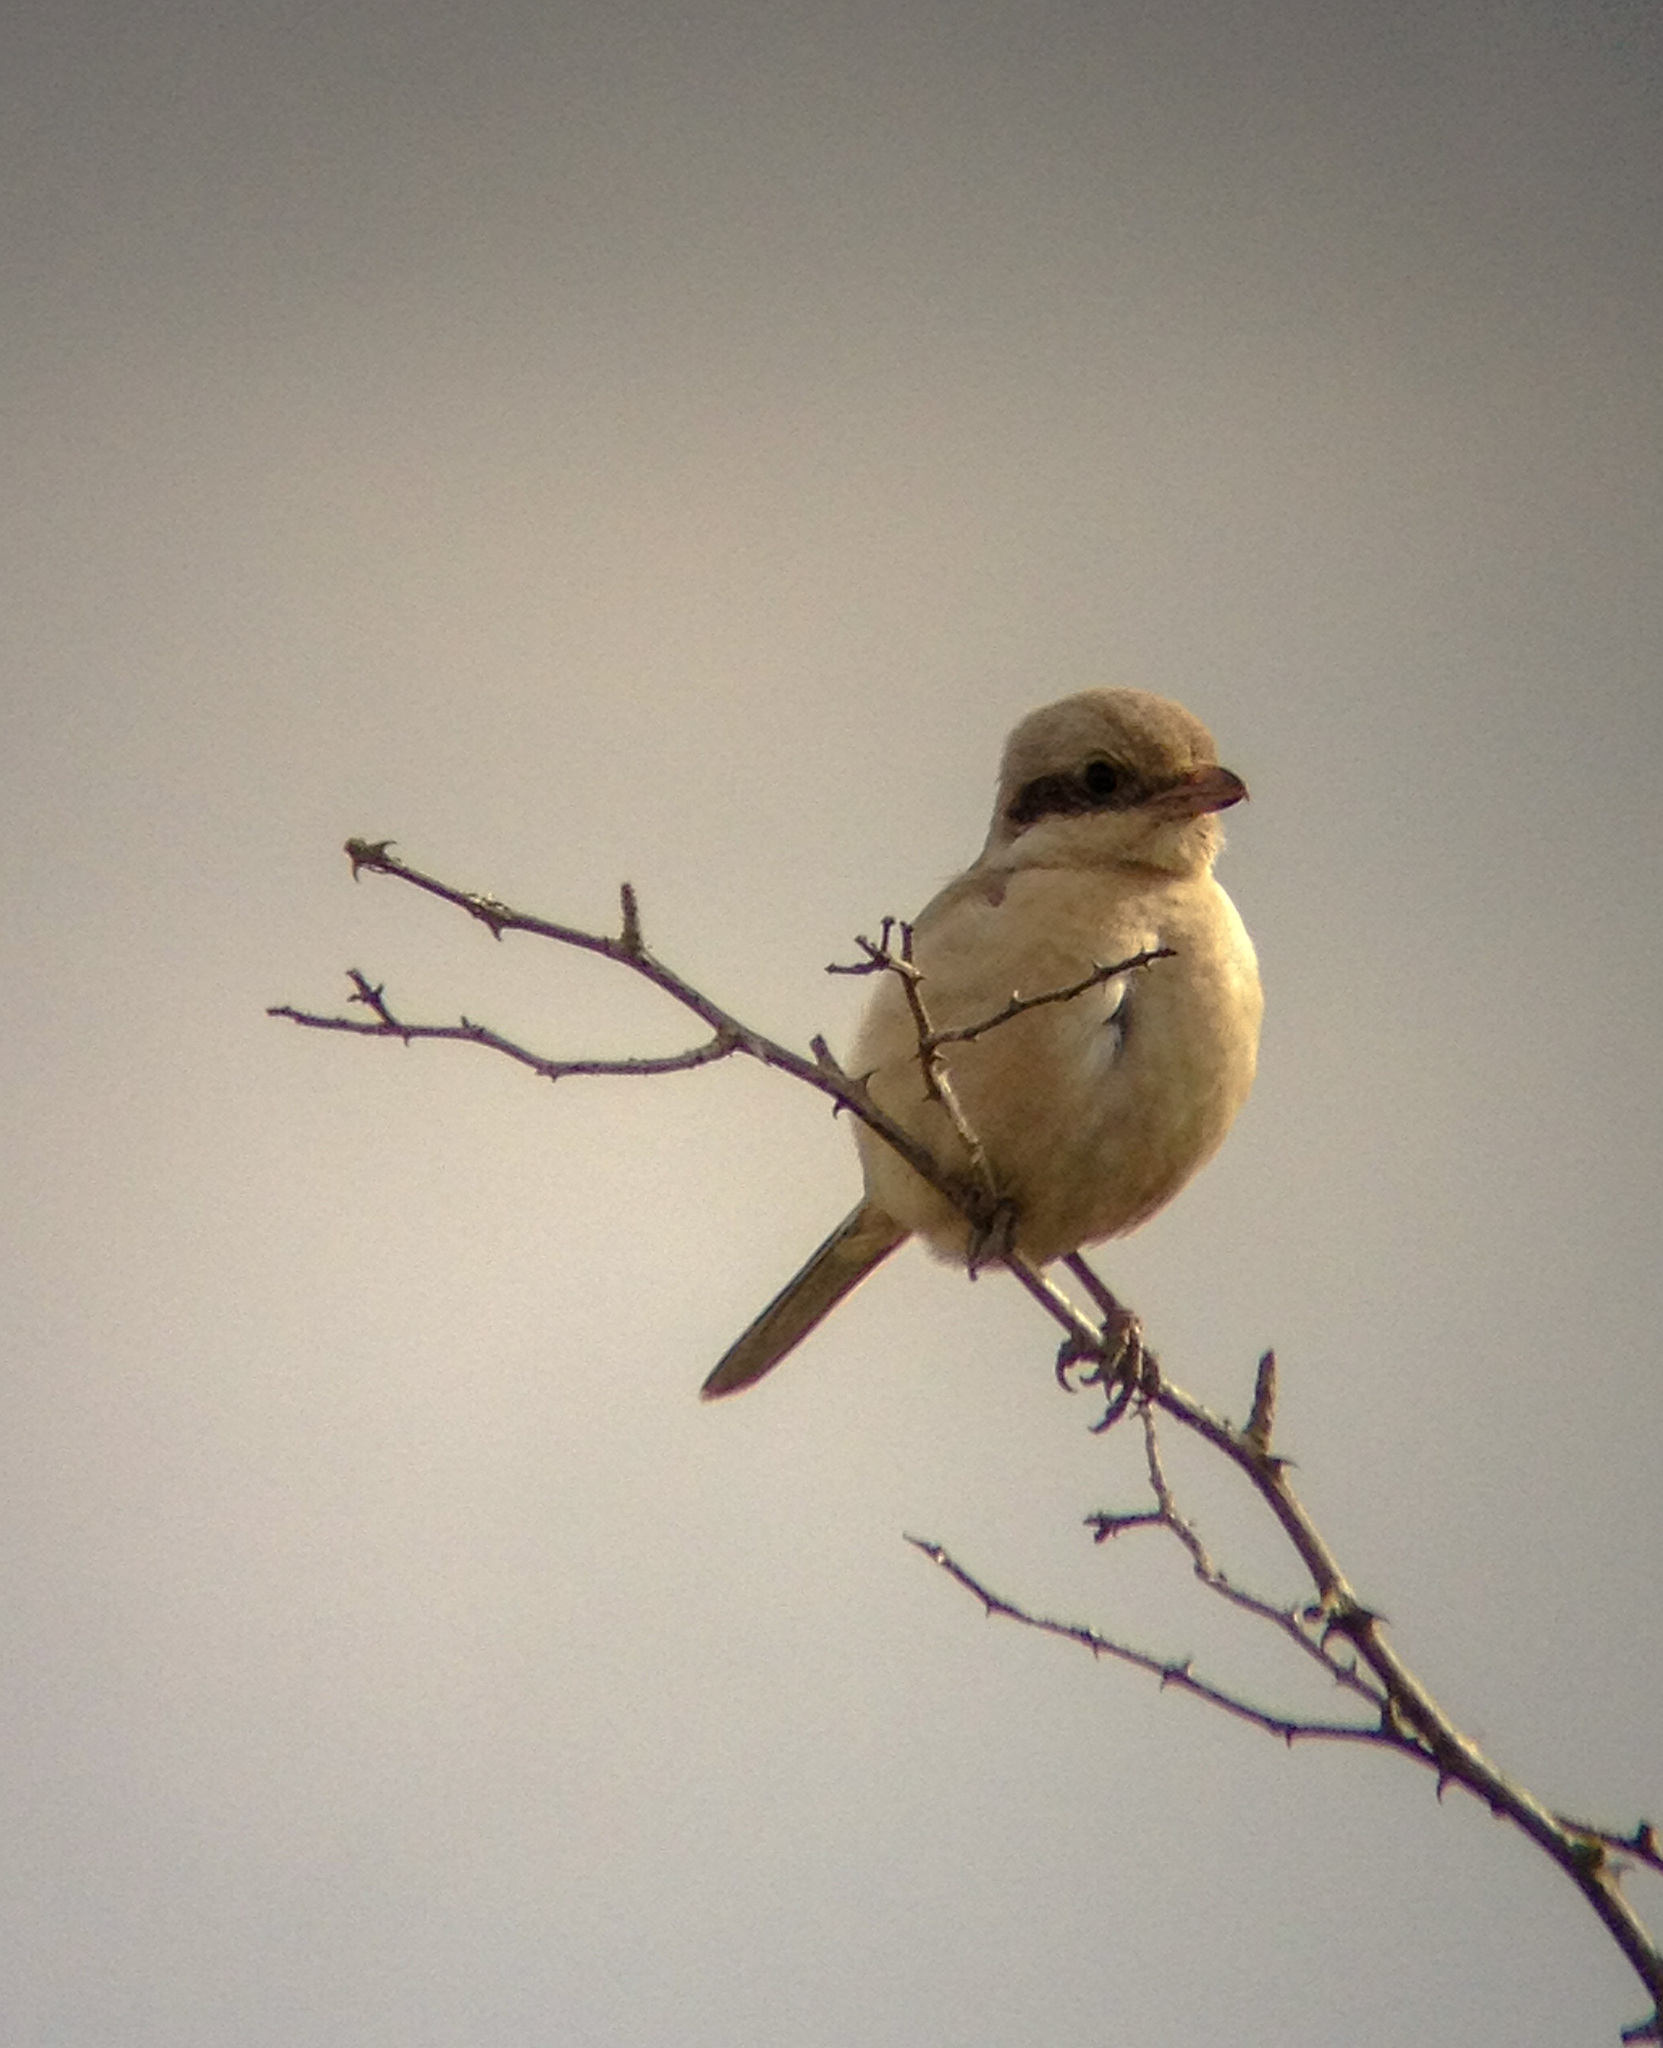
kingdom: Animalia
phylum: Chordata
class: Aves
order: Passeriformes
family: Laniidae
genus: Lanius
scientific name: Lanius isabellinus
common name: Isabelline shrike
